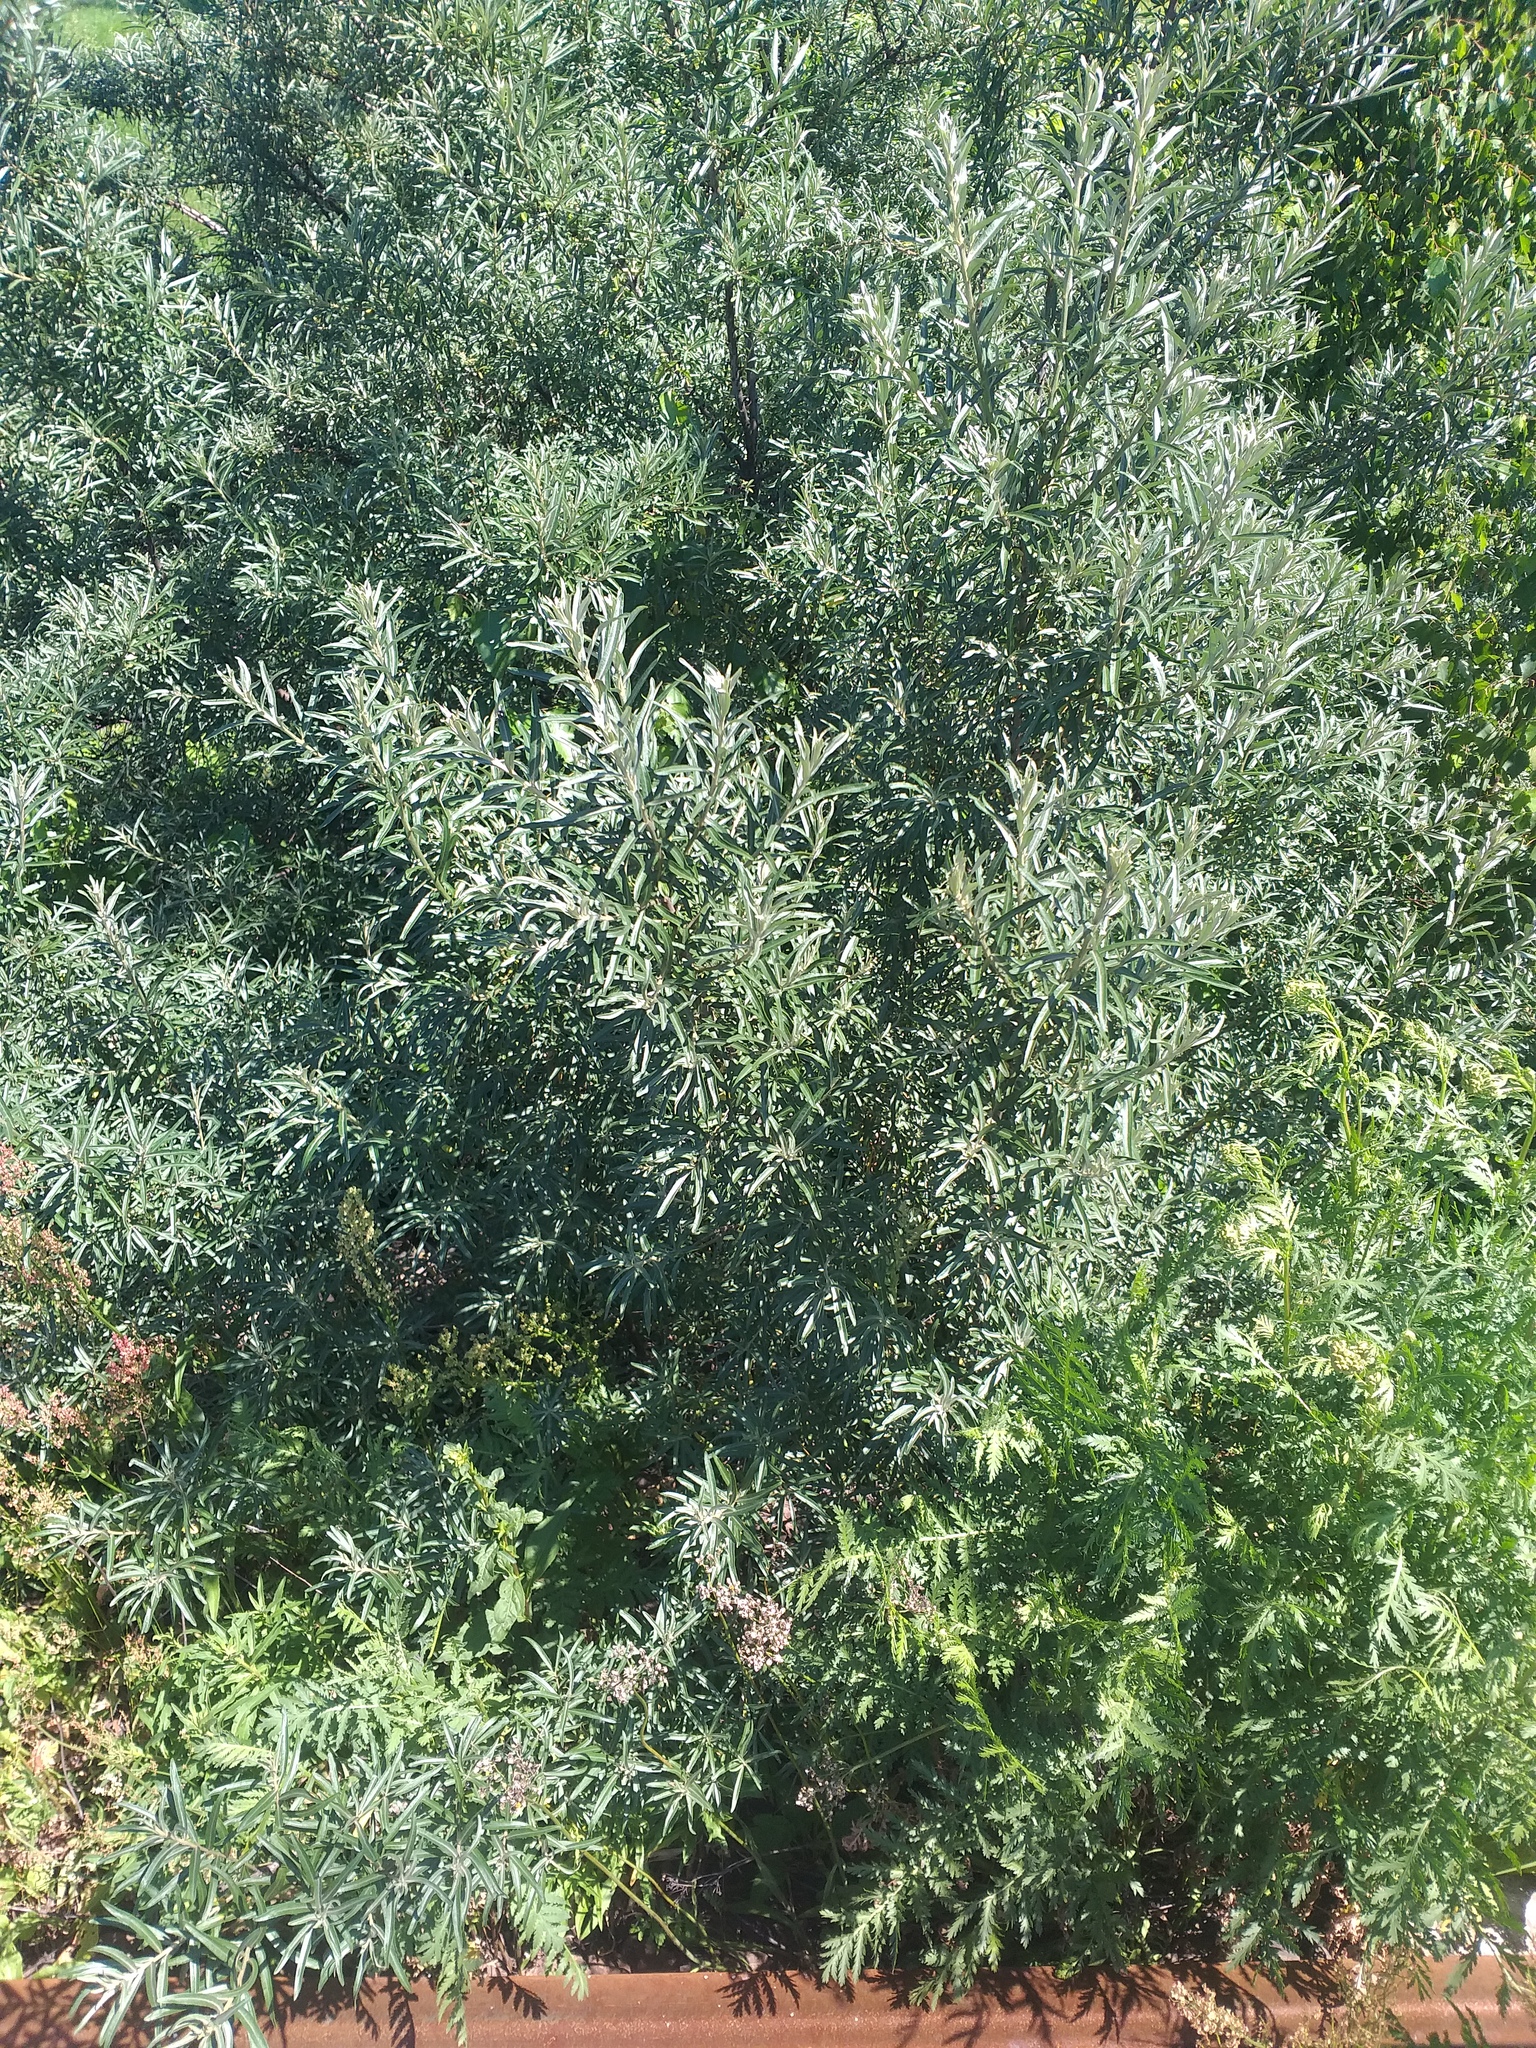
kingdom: Plantae
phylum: Tracheophyta
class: Magnoliopsida
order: Rosales
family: Elaeagnaceae
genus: Hippophae
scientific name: Hippophae rhamnoides
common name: Sea-buckthorn
